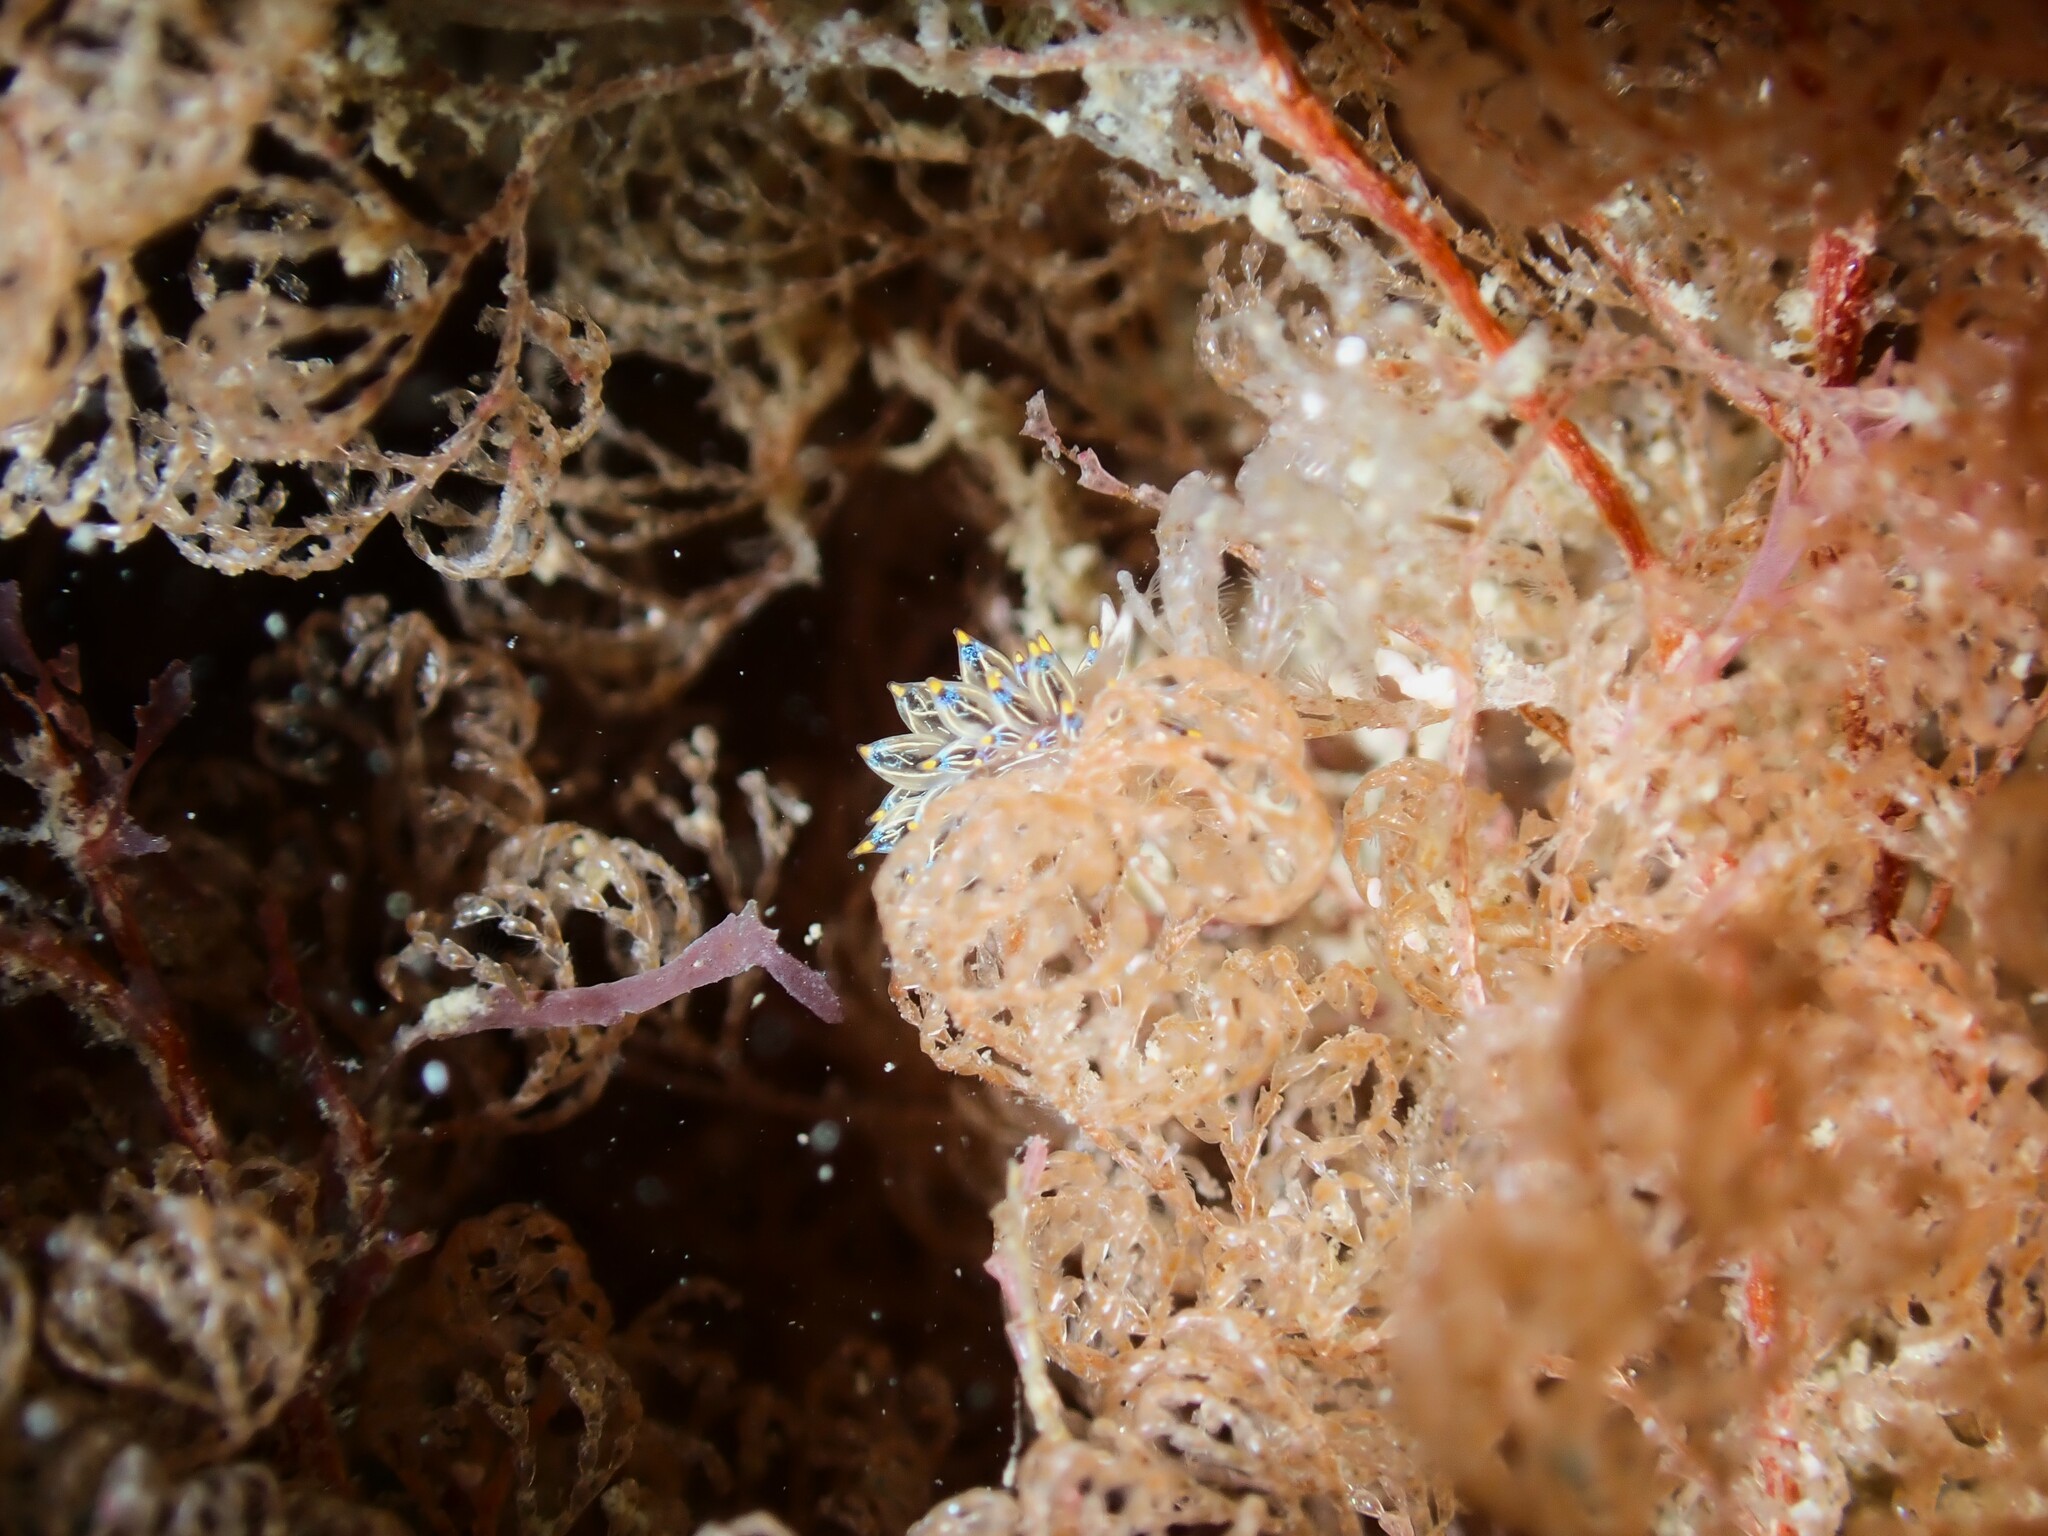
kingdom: Animalia
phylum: Mollusca
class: Gastropoda
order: Nudibranchia
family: Janolidae
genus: Janolus
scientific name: Janolus eximius
